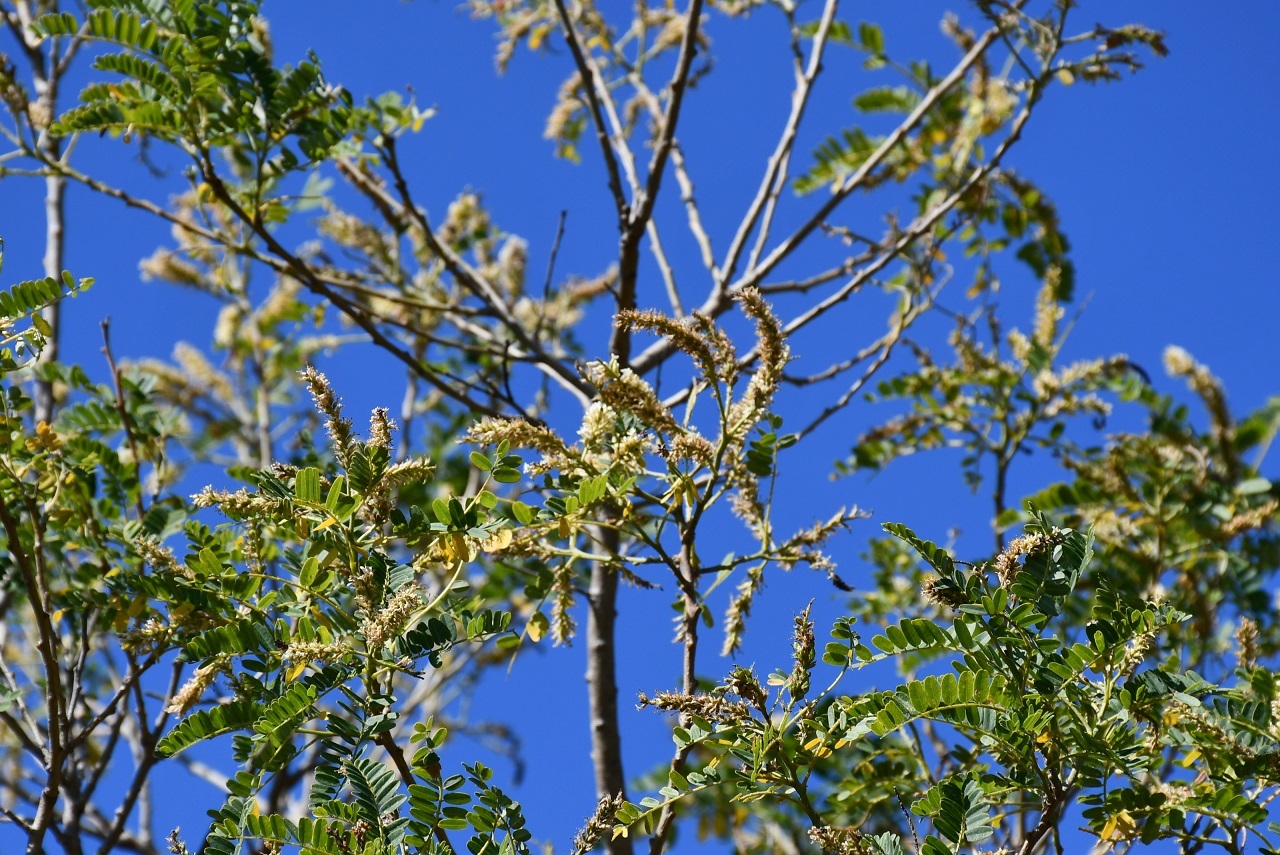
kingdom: Plantae
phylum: Tracheophyta
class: Magnoliopsida
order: Fabales
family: Fabaceae
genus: Eysenhardtia
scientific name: Eysenhardtia adenostylis
